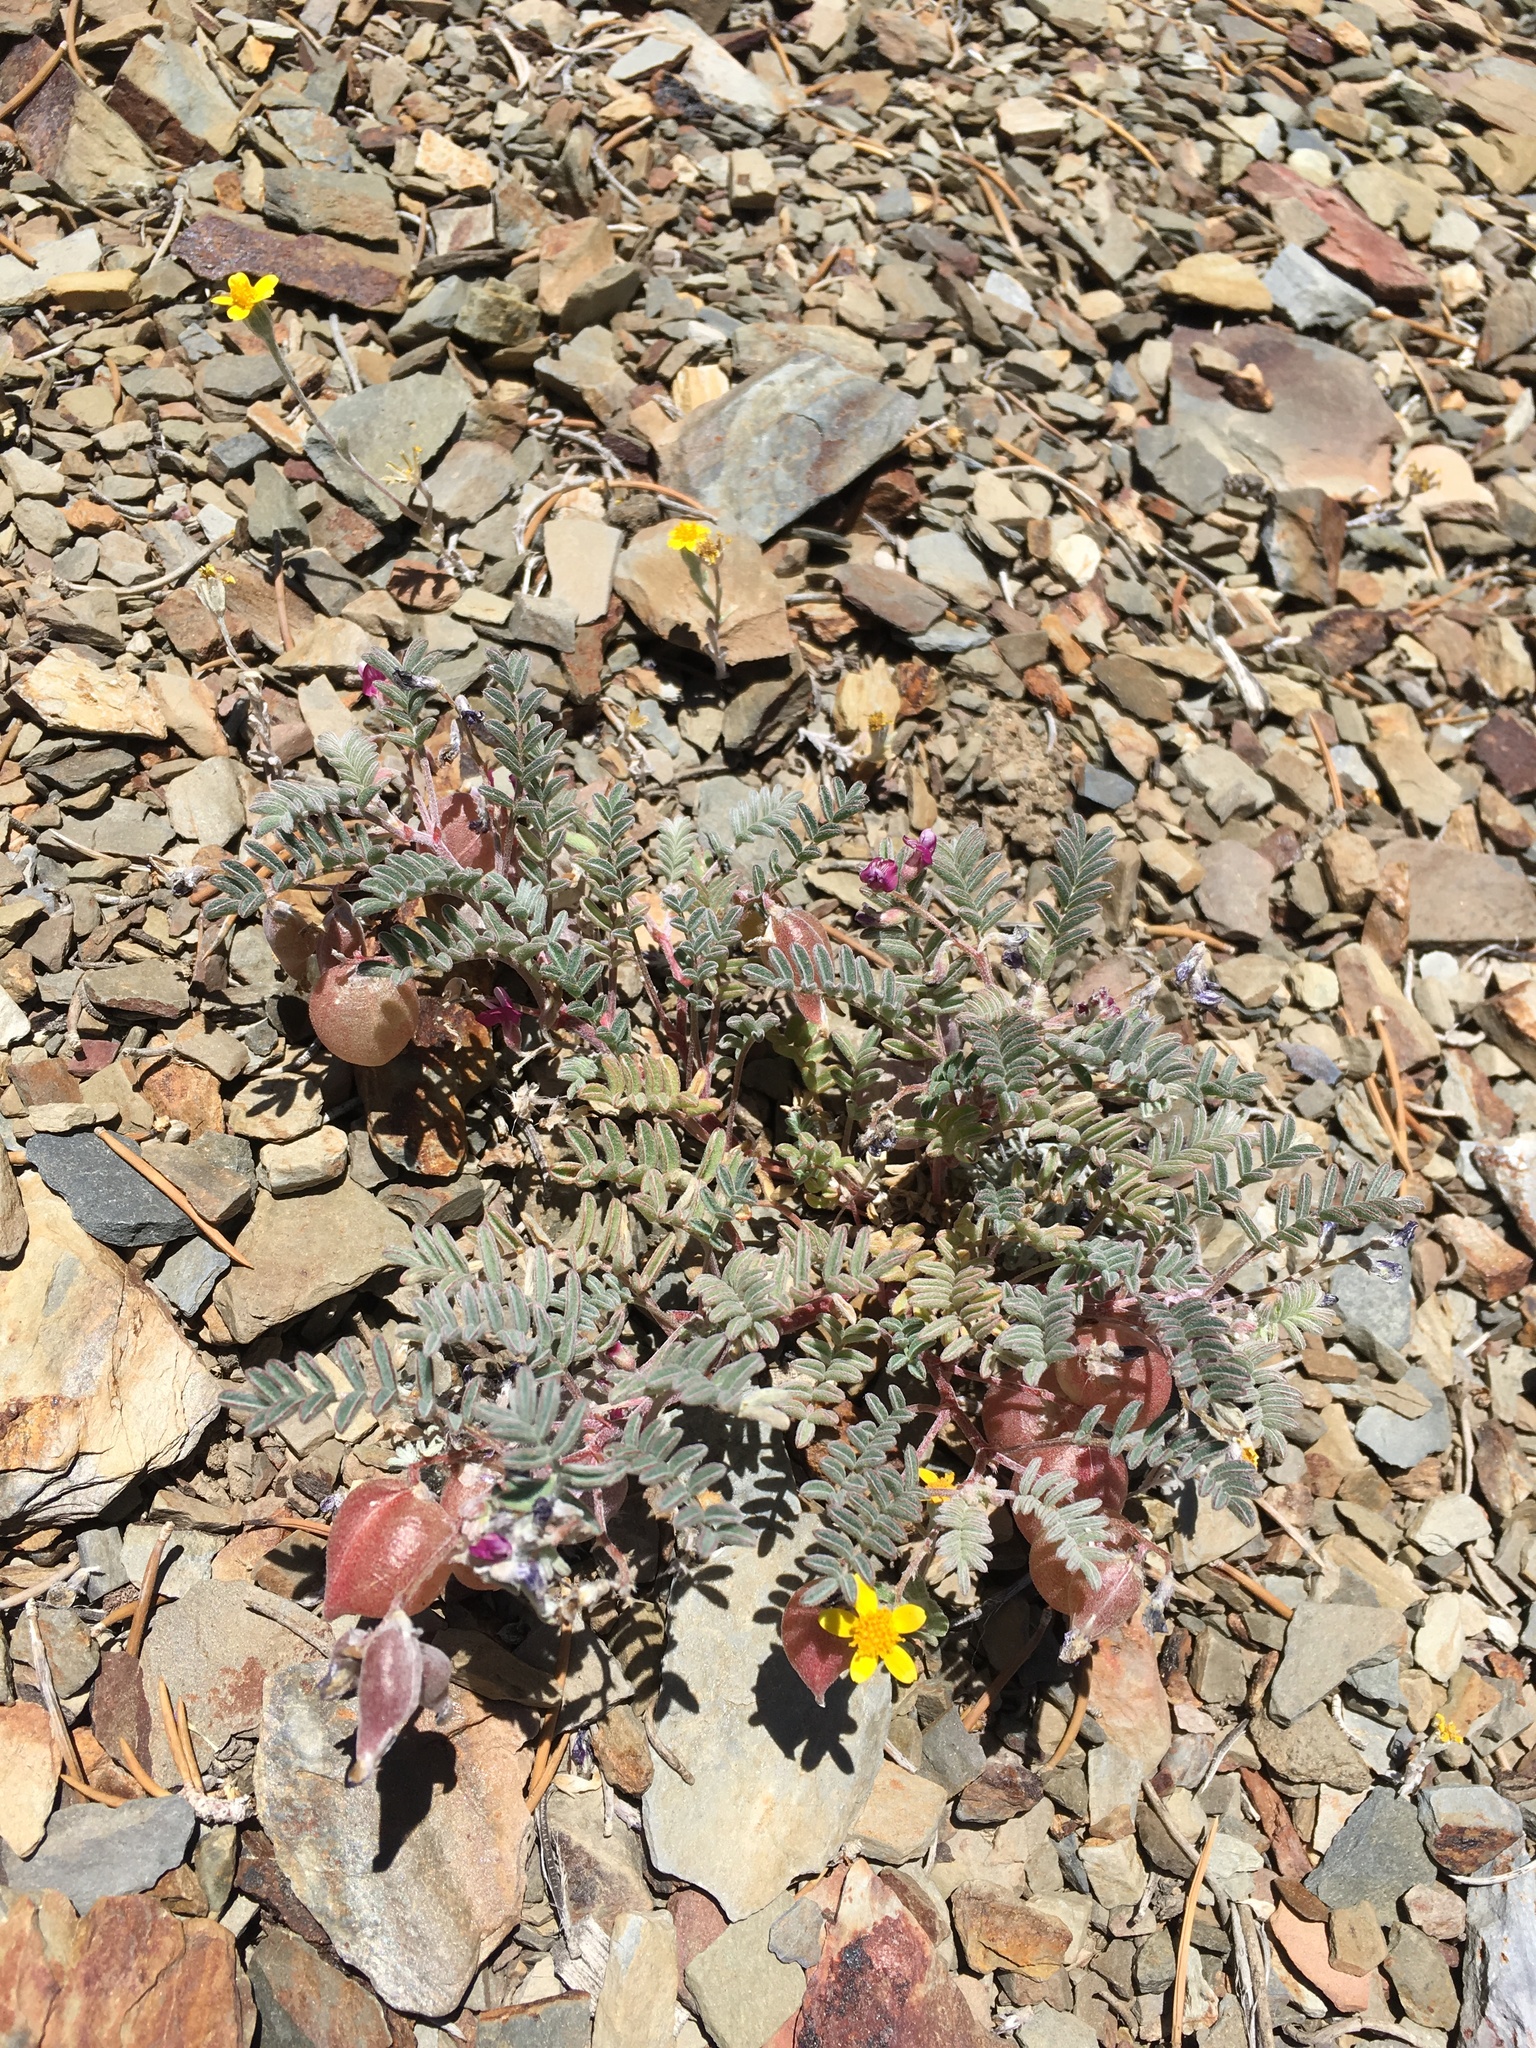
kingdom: Plantae
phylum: Tracheophyta
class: Magnoliopsida
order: Fabales
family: Fabaceae
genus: Astragalus
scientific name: Astragalus gilmanii
